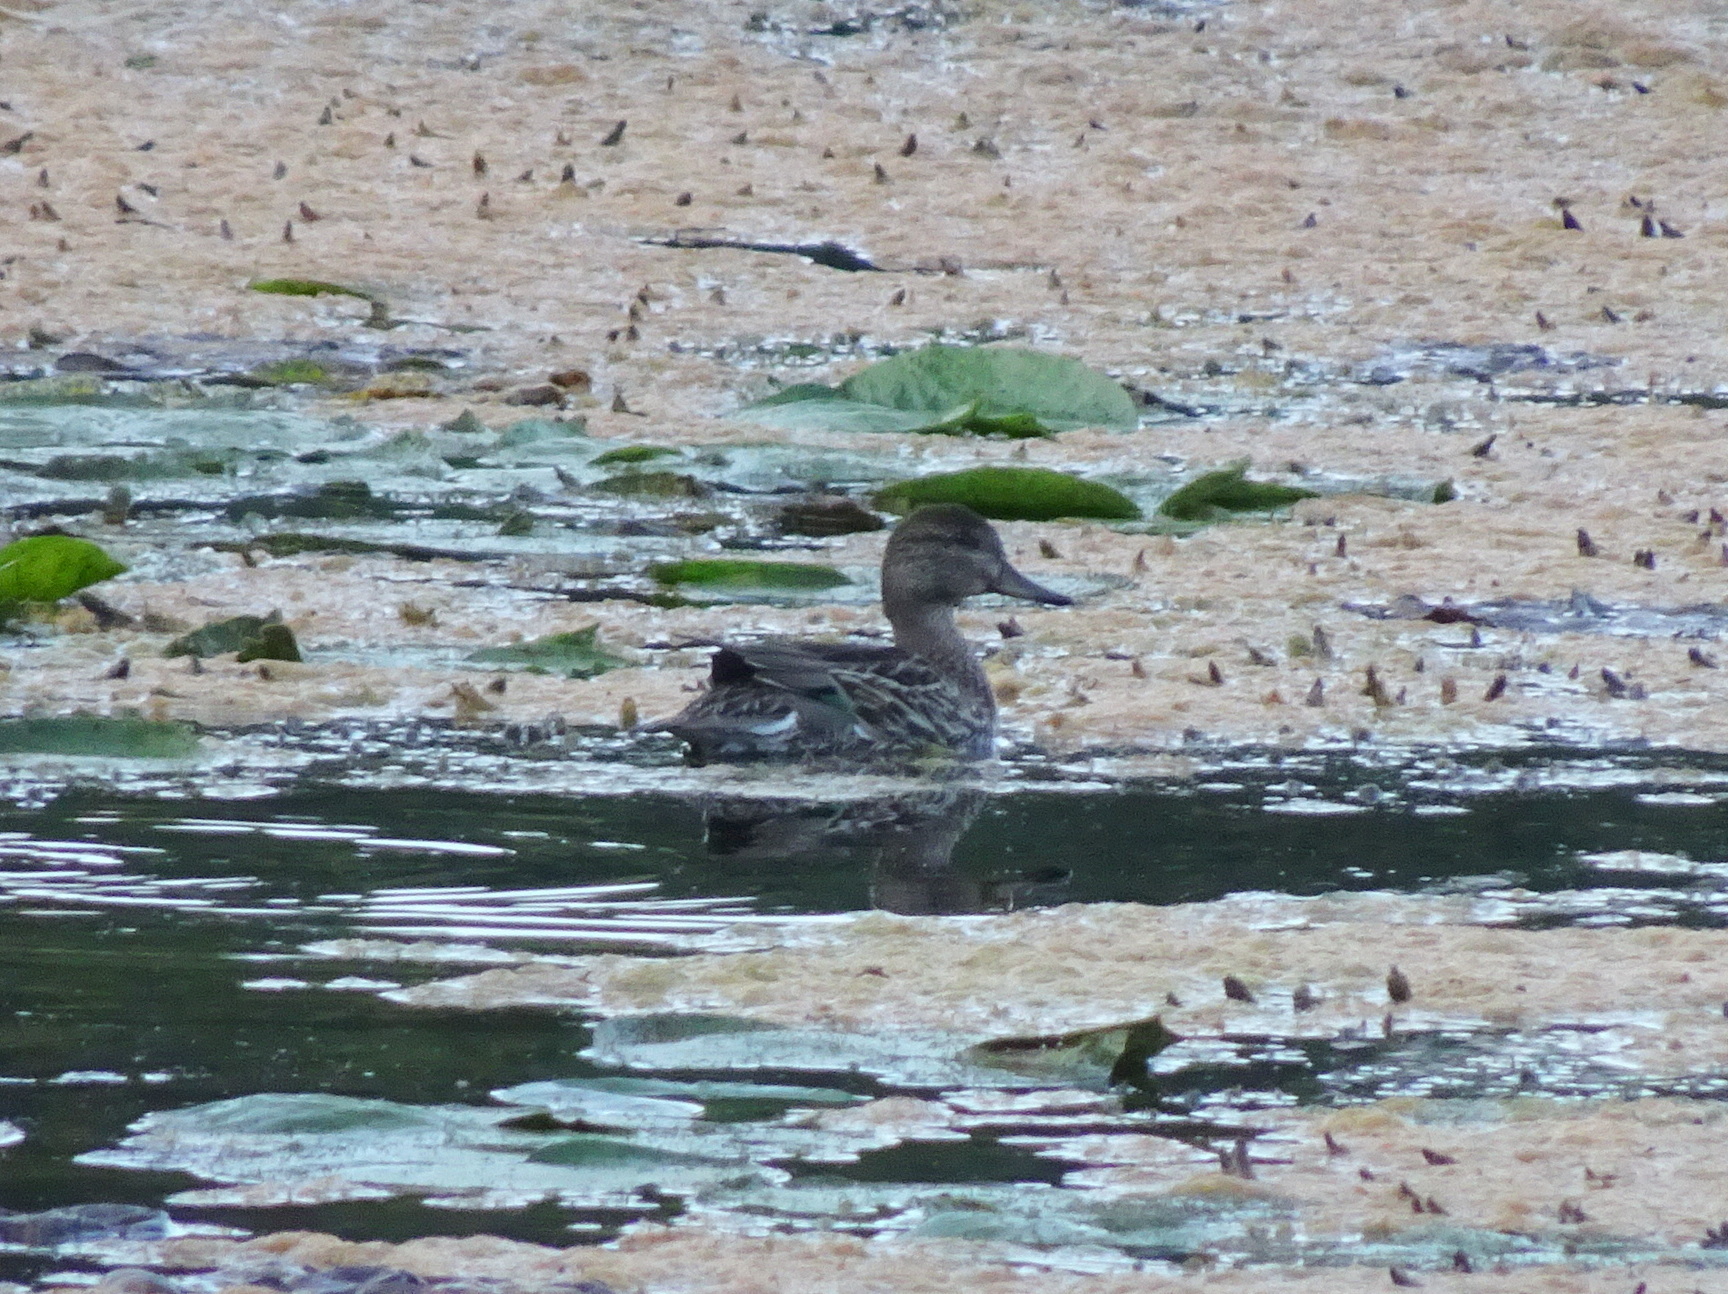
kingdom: Animalia
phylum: Chordata
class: Aves
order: Anseriformes
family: Anatidae
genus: Anas
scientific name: Anas crecca
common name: Eurasian teal
